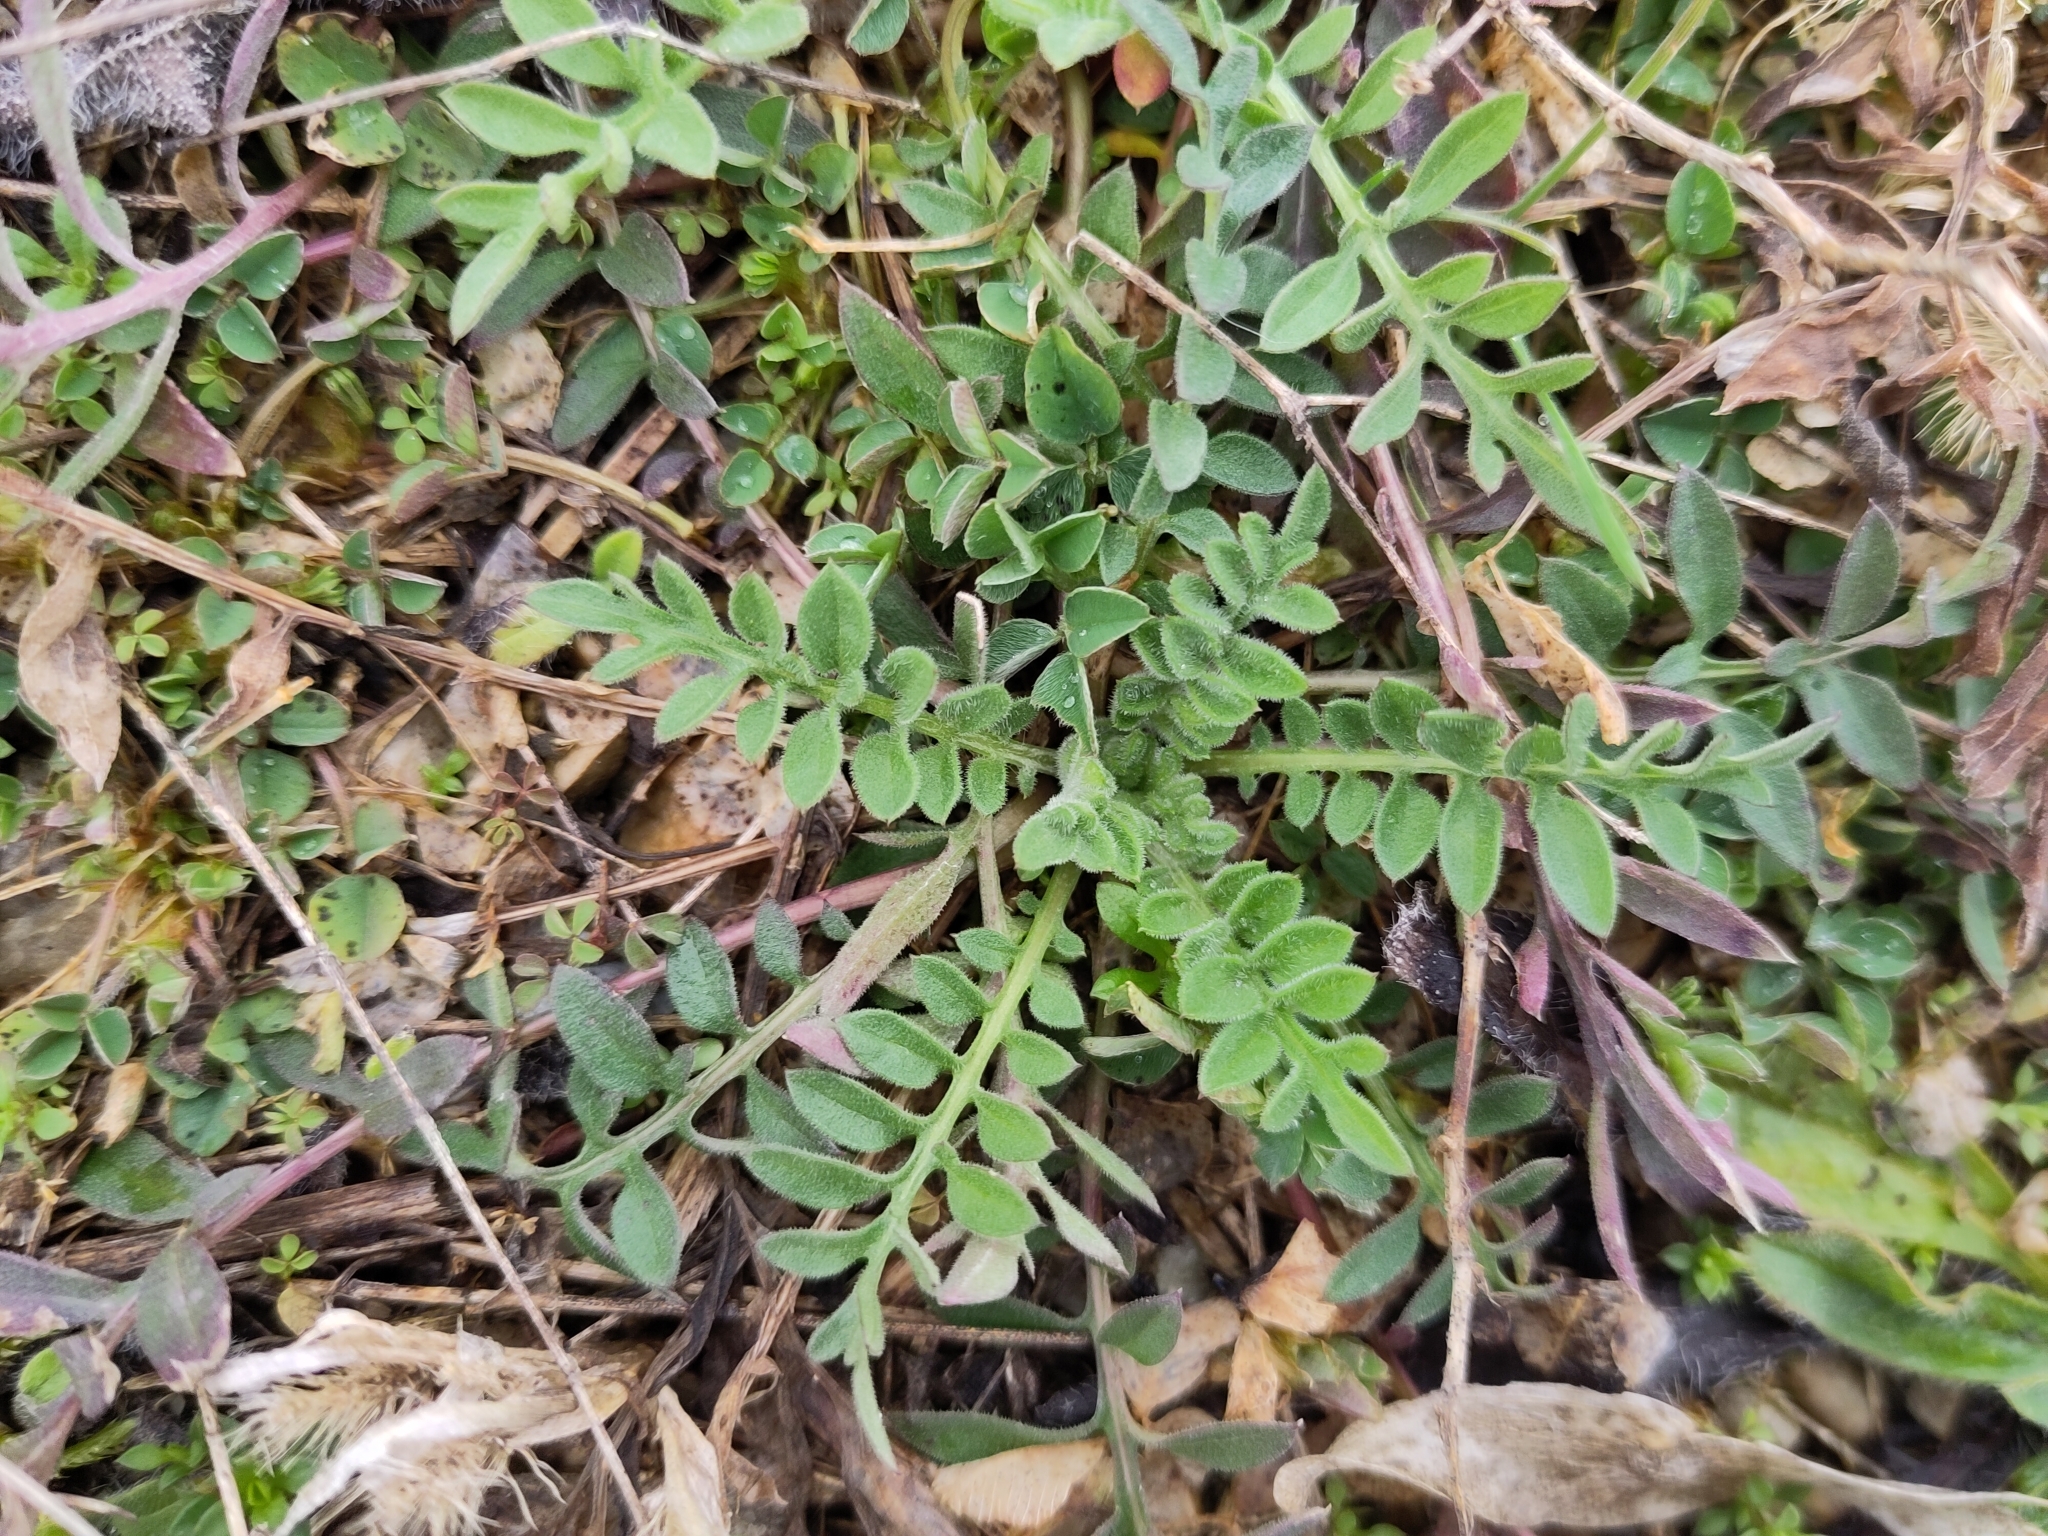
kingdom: Plantae
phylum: Tracheophyta
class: Magnoliopsida
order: Asterales
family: Asteraceae
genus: Centaurea
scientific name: Centaurea stoebe
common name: Spotted knapweed
